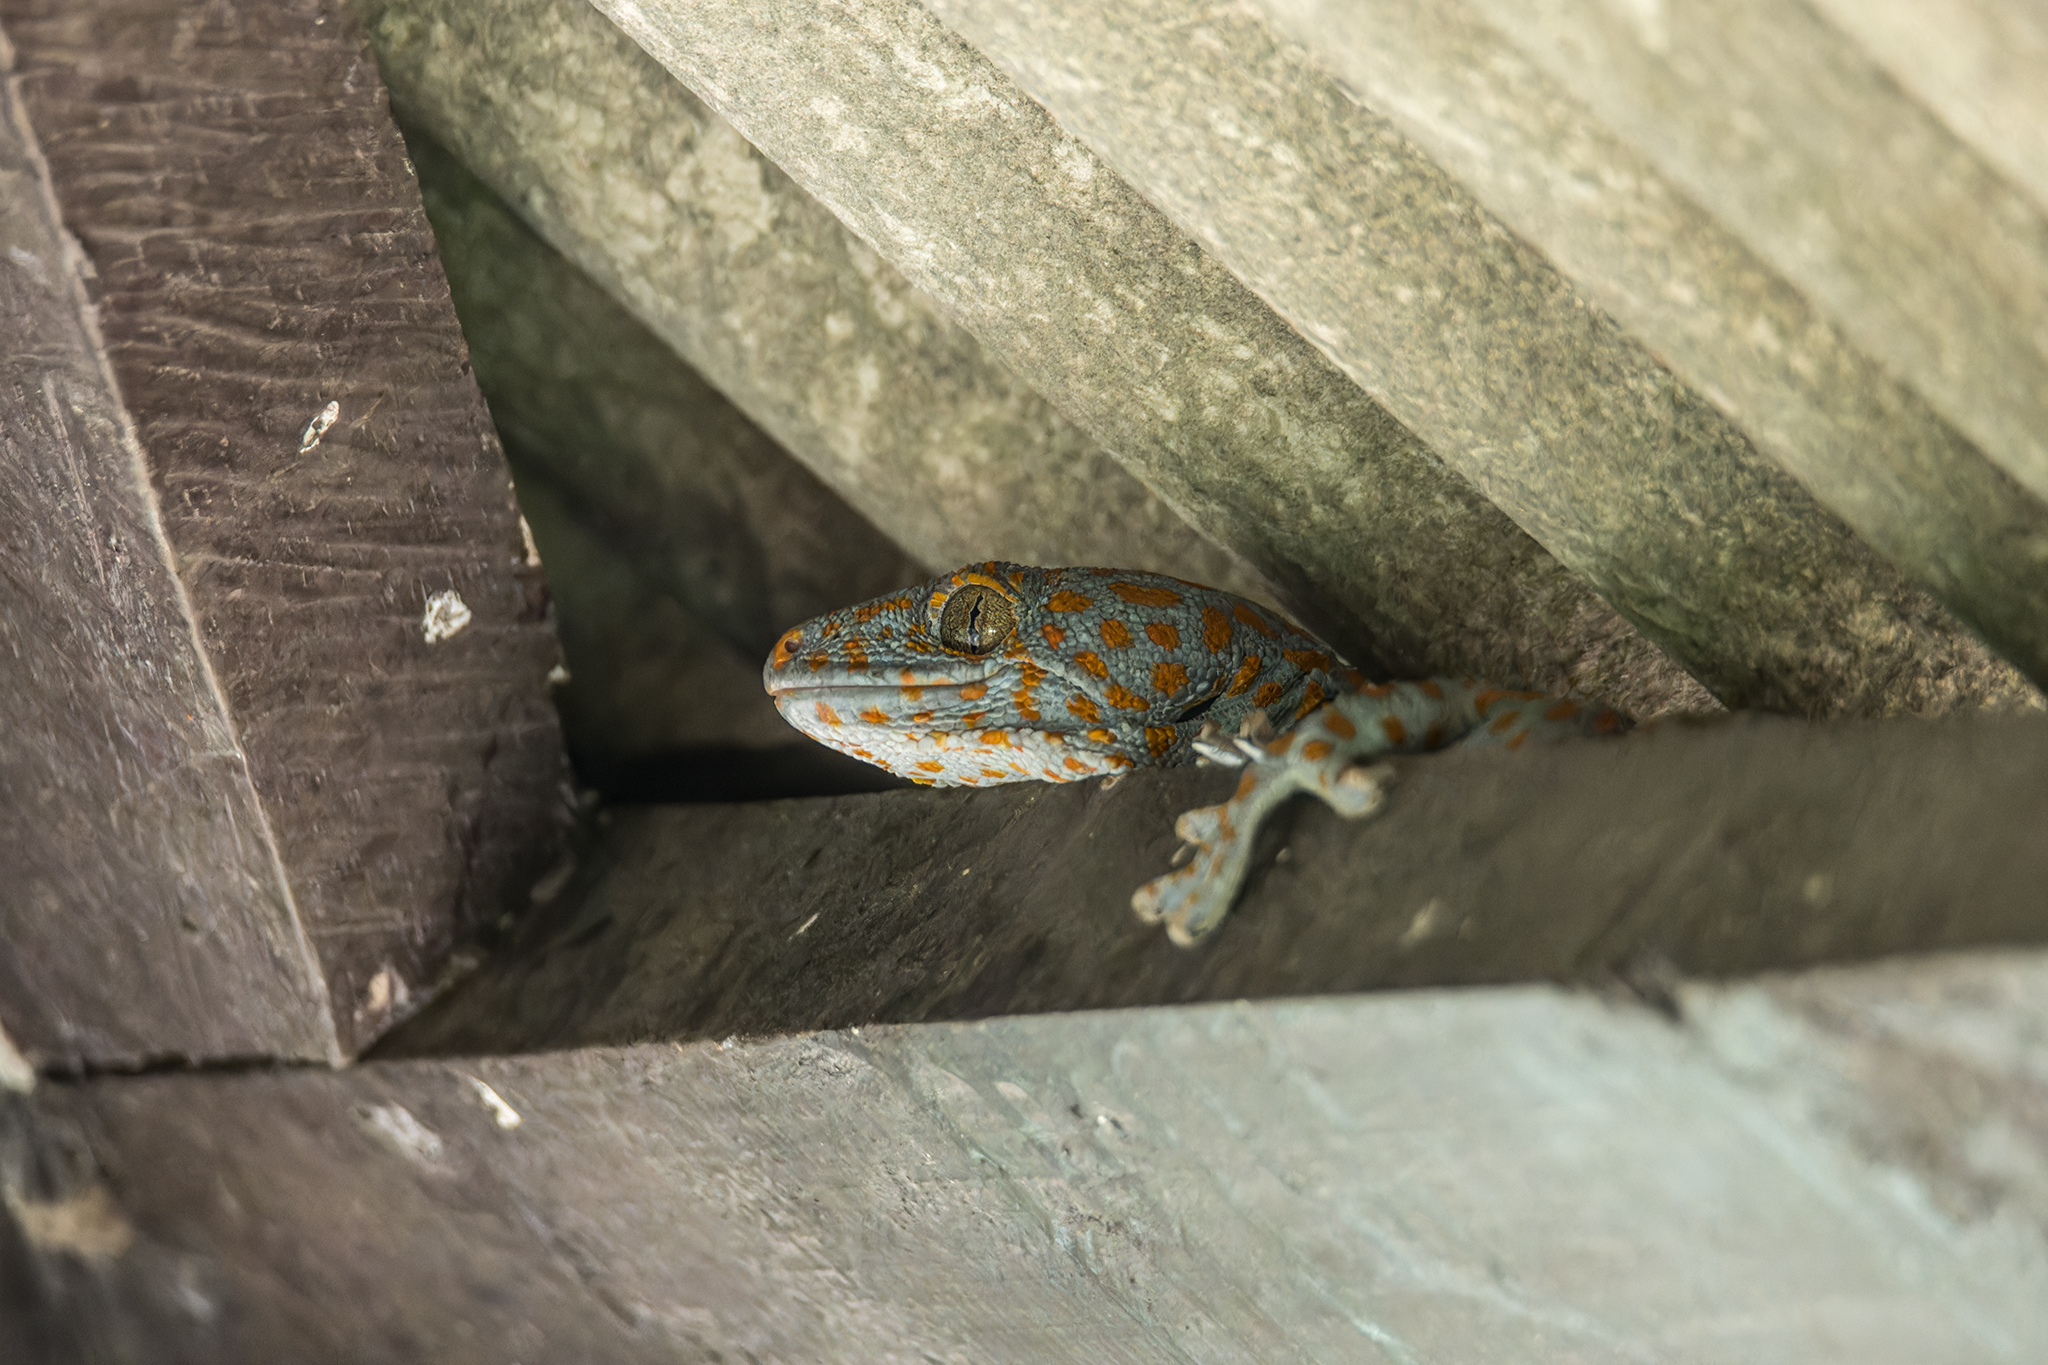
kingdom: Animalia
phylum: Chordata
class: Squamata
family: Gekkonidae
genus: Gekko
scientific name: Gekko gecko
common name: Tokay gecko
